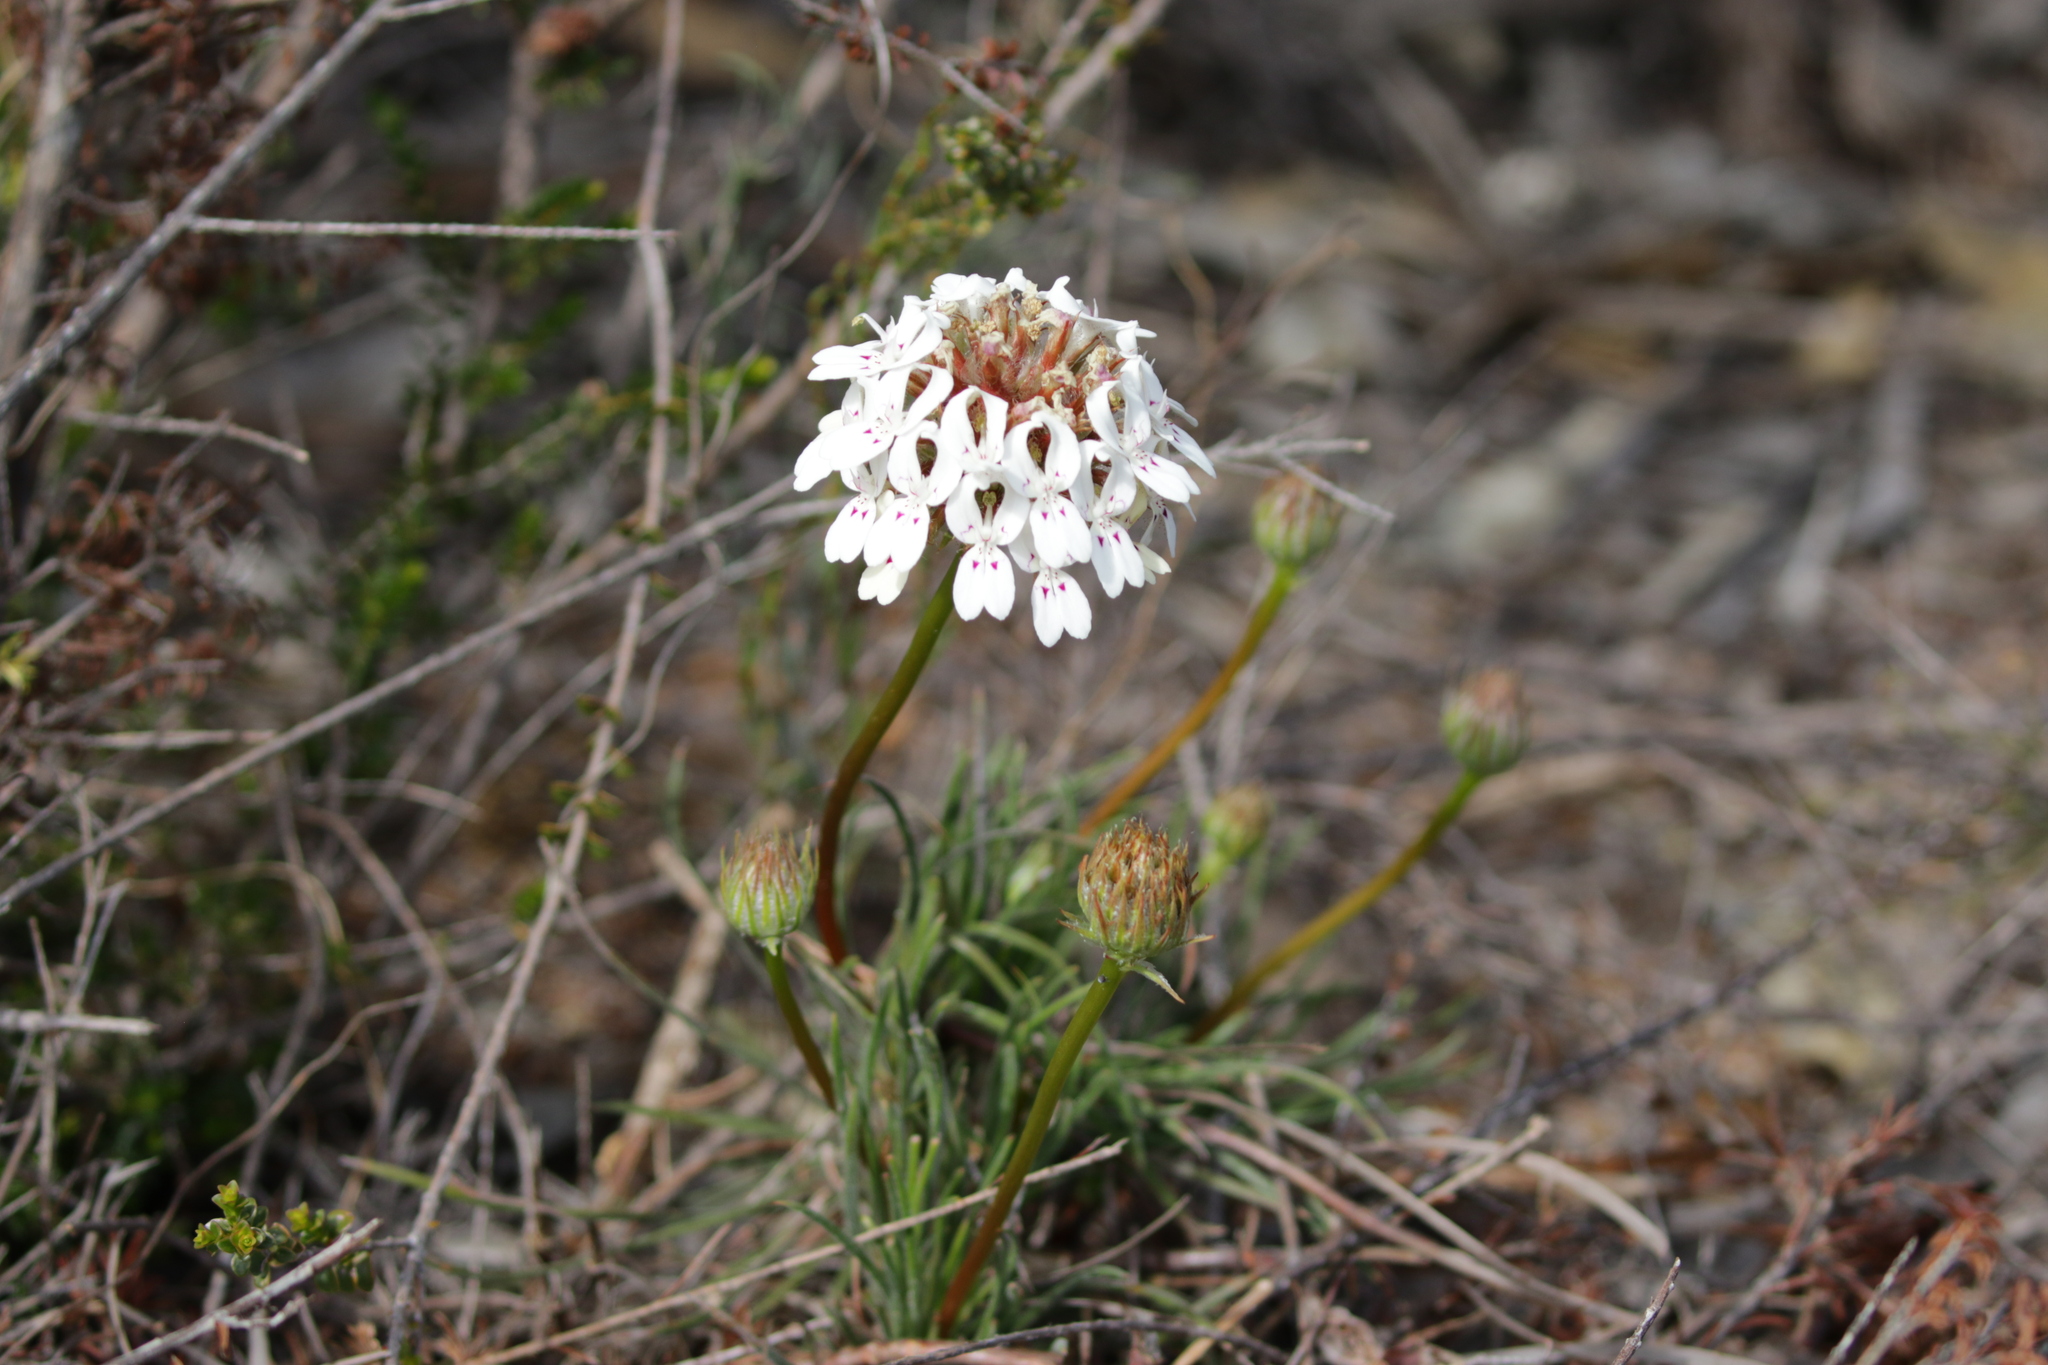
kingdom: Plantae
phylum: Tracheophyta
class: Magnoliopsida
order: Asterales
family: Stylidiaceae
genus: Stylidium
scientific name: Stylidium crossocephalum
